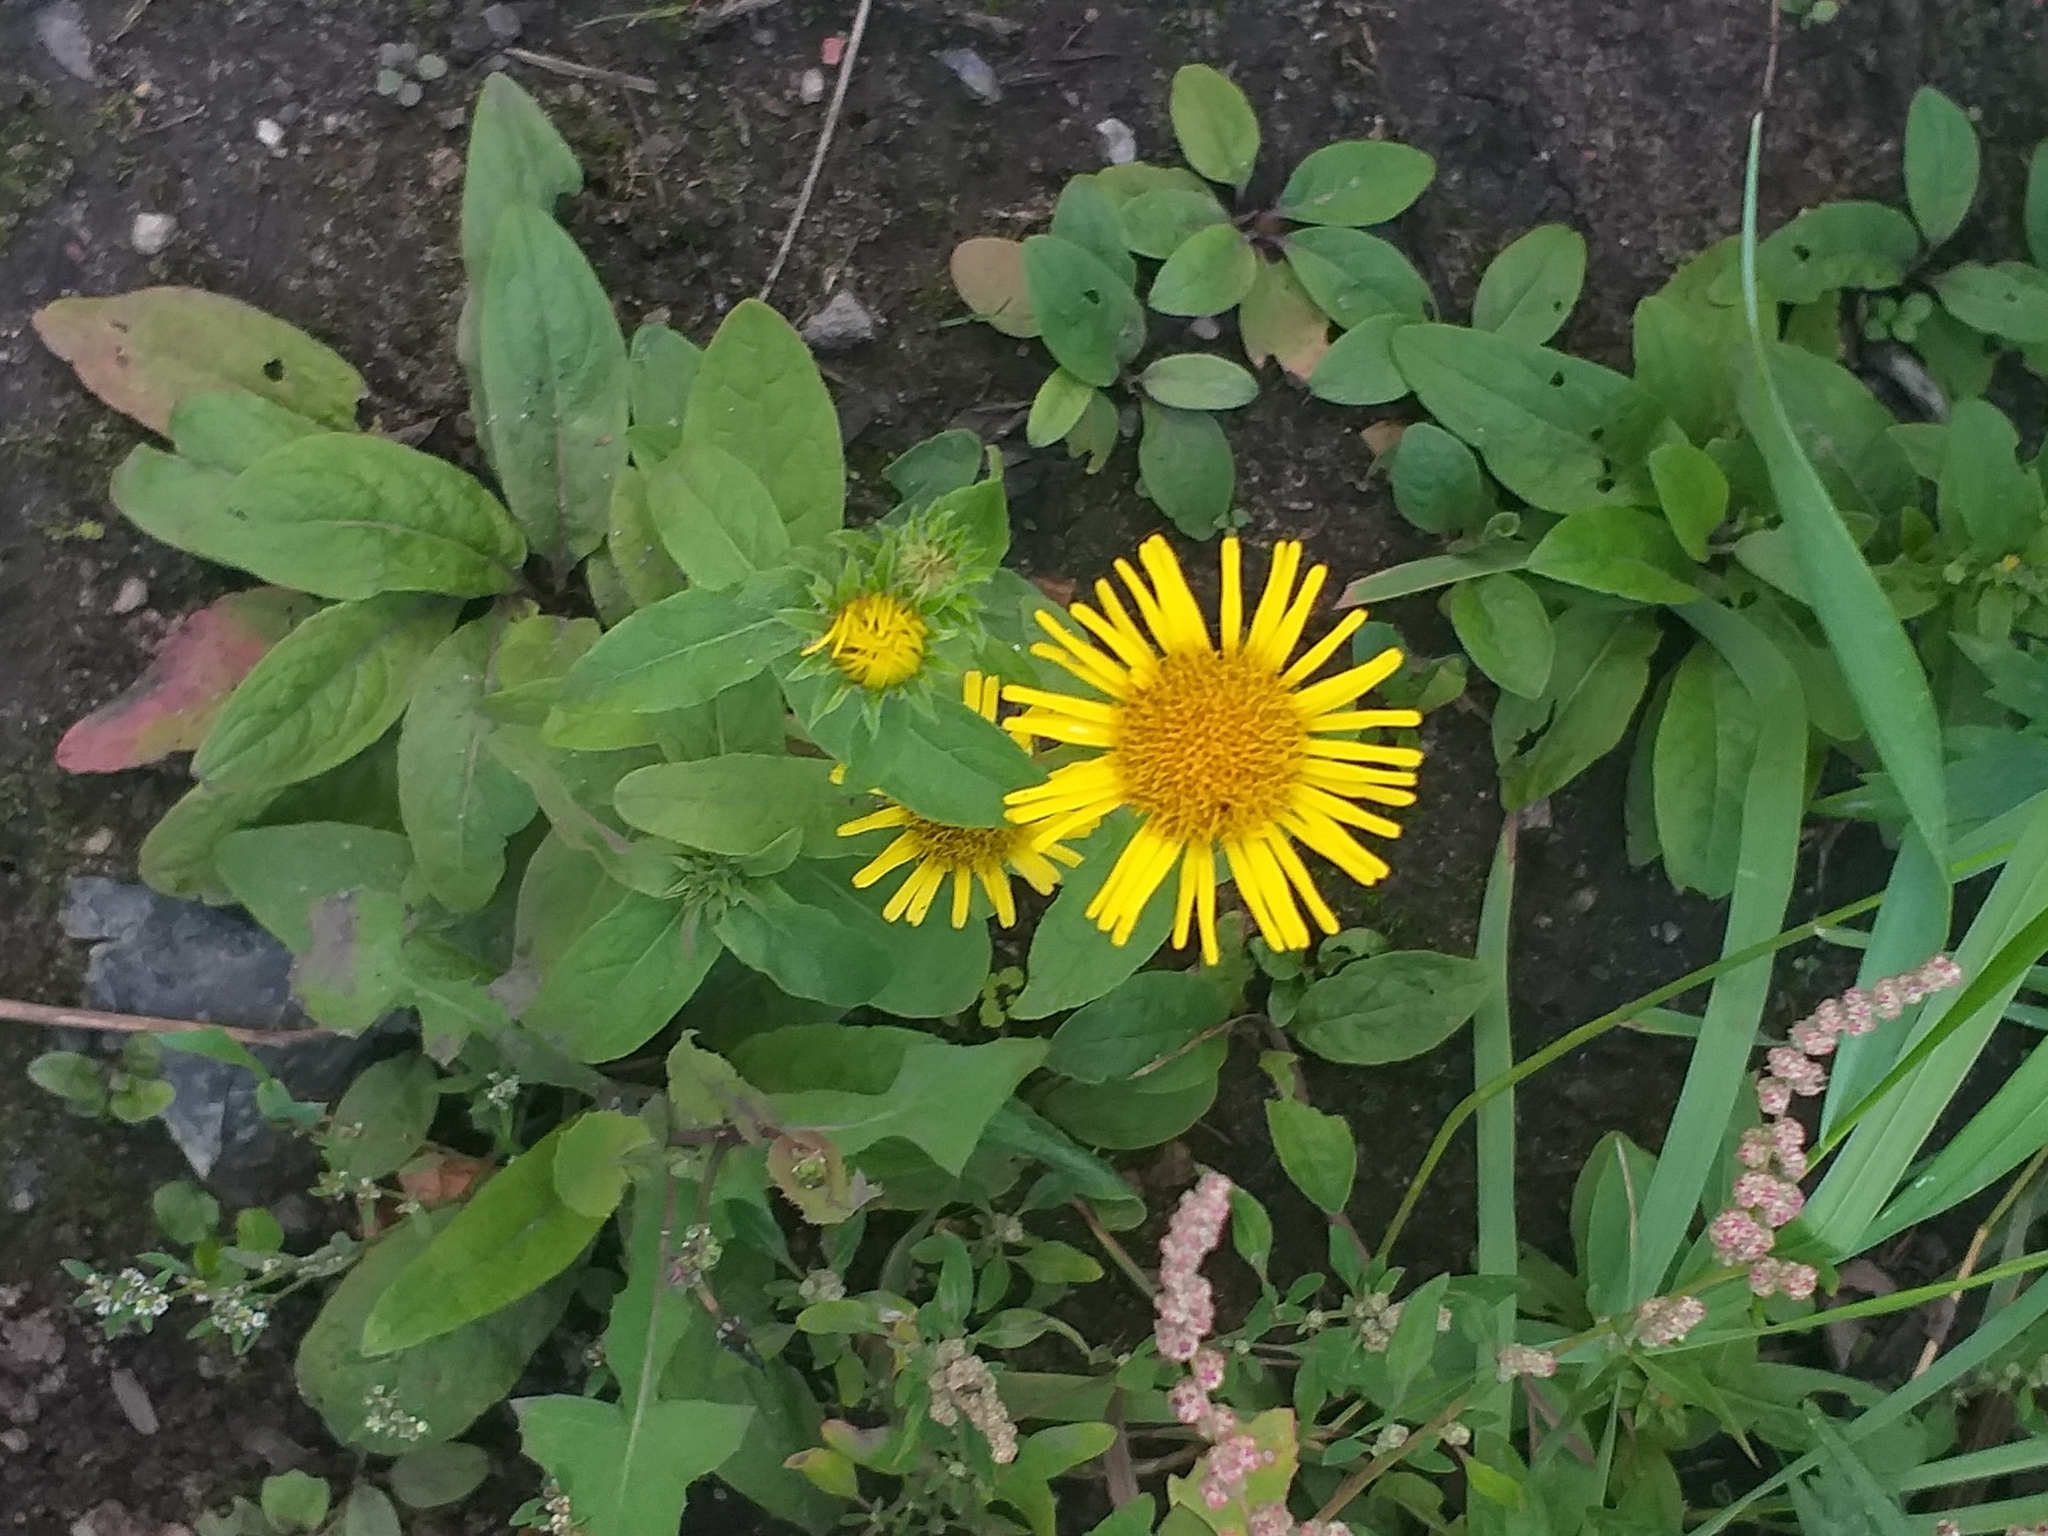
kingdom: Plantae
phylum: Tracheophyta
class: Magnoliopsida
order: Asterales
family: Asteraceae
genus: Pentanema
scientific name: Pentanema britannicum
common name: British elecampane
